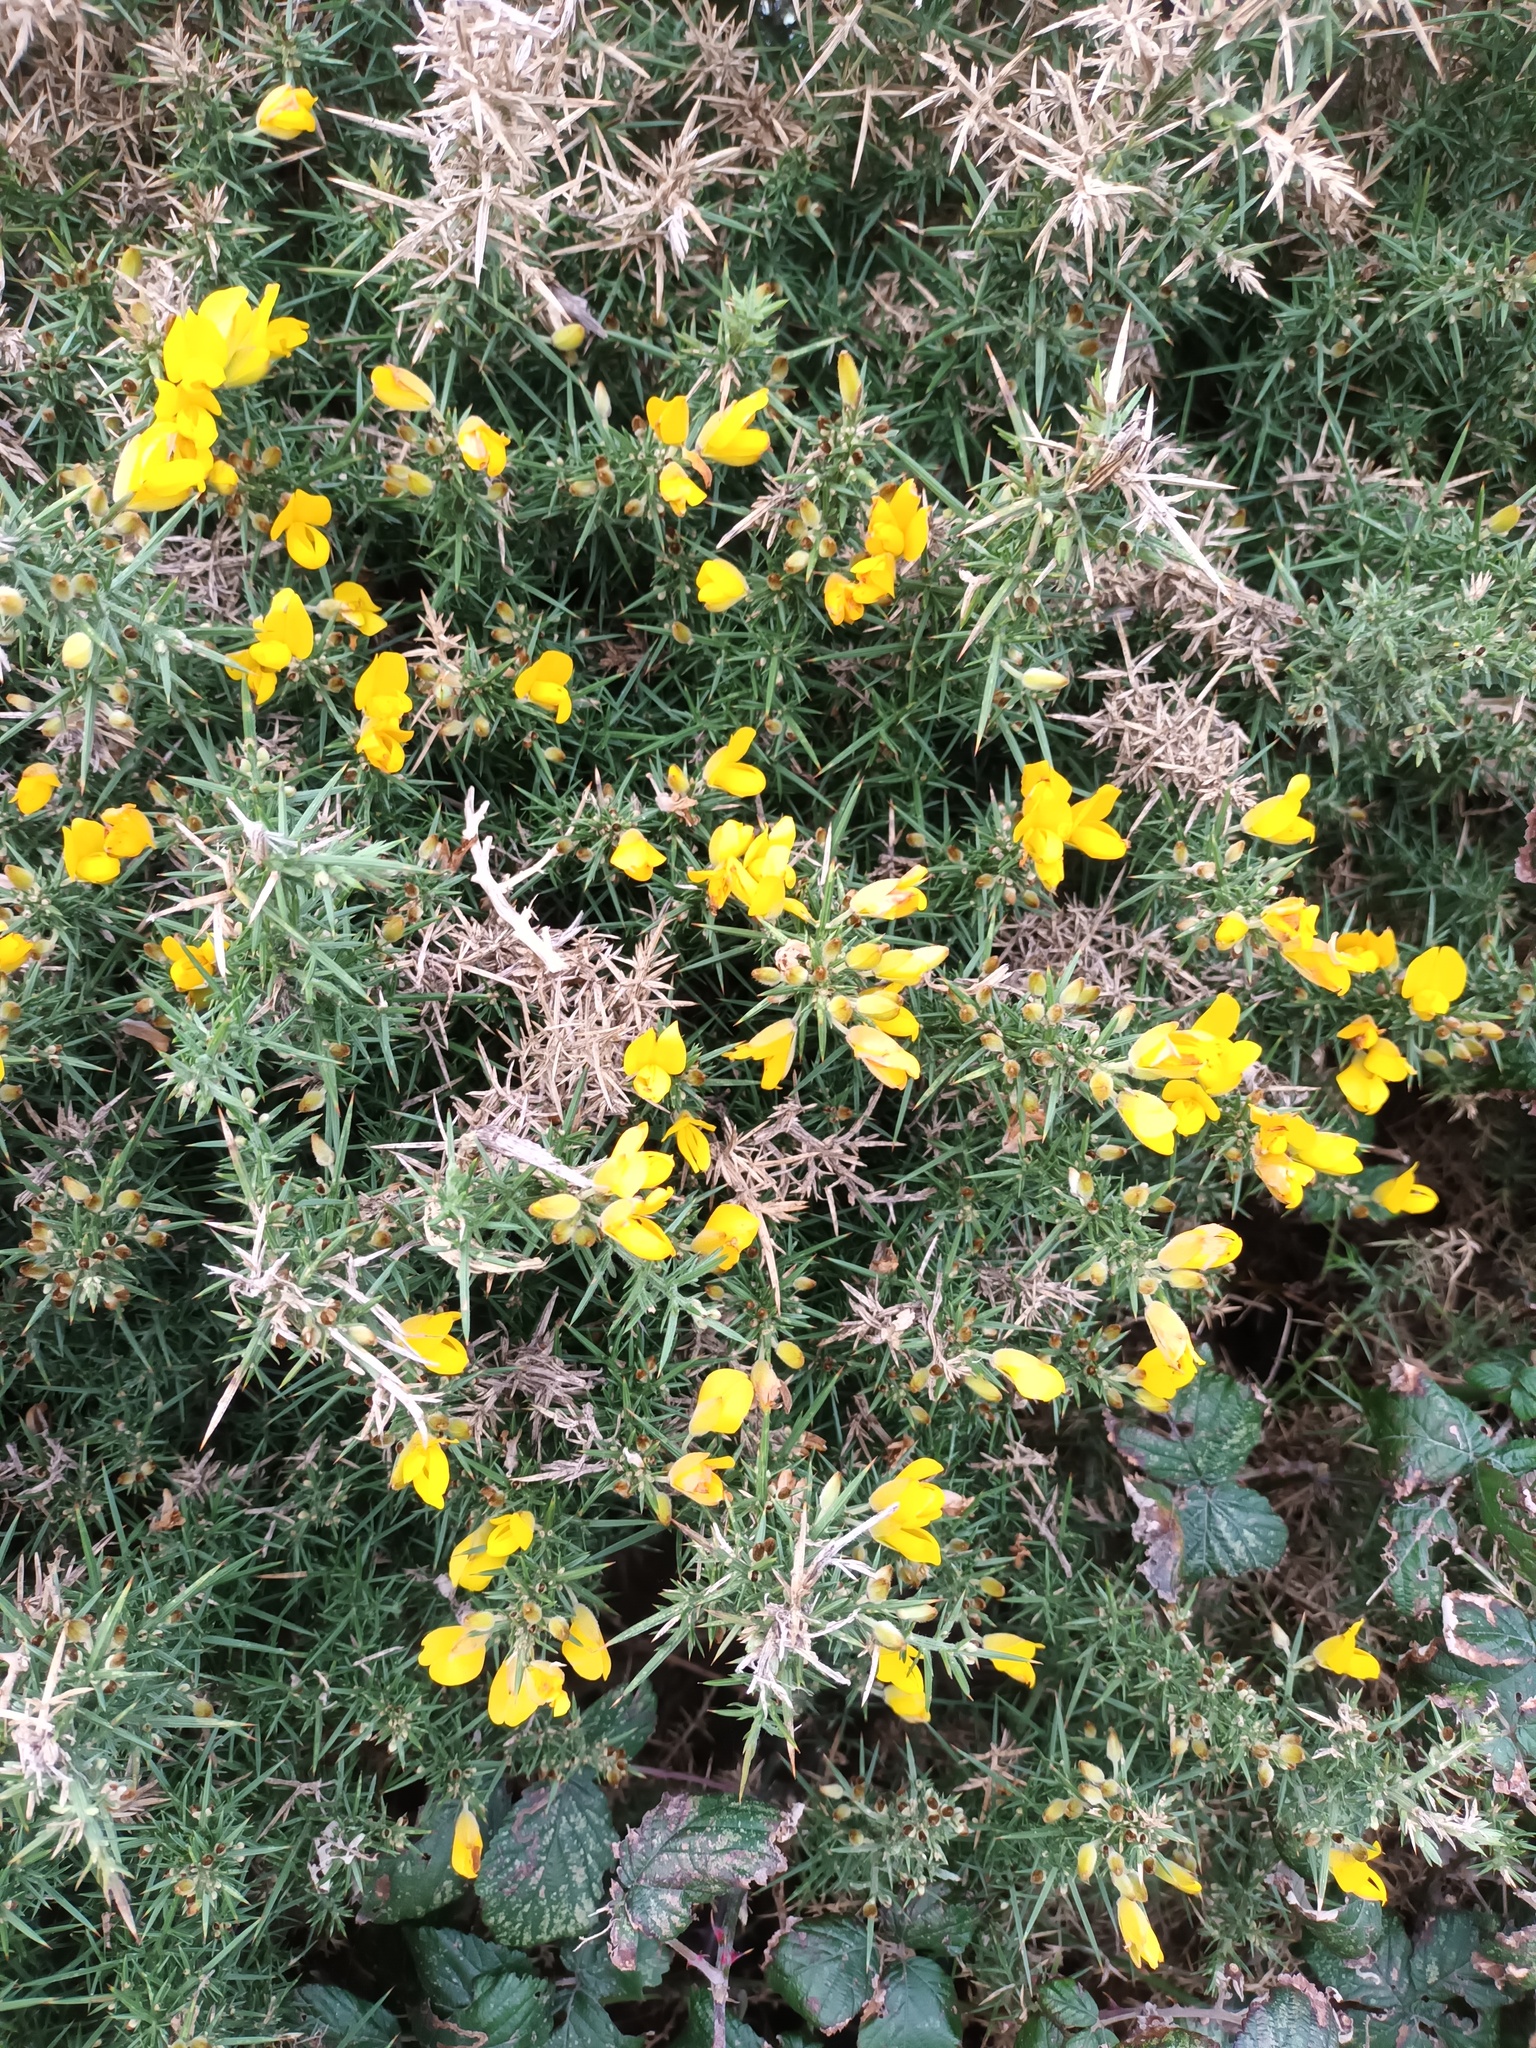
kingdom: Plantae
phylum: Tracheophyta
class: Magnoliopsida
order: Fabales
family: Fabaceae
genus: Ulex
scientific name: Ulex europaeus
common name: Common gorse
